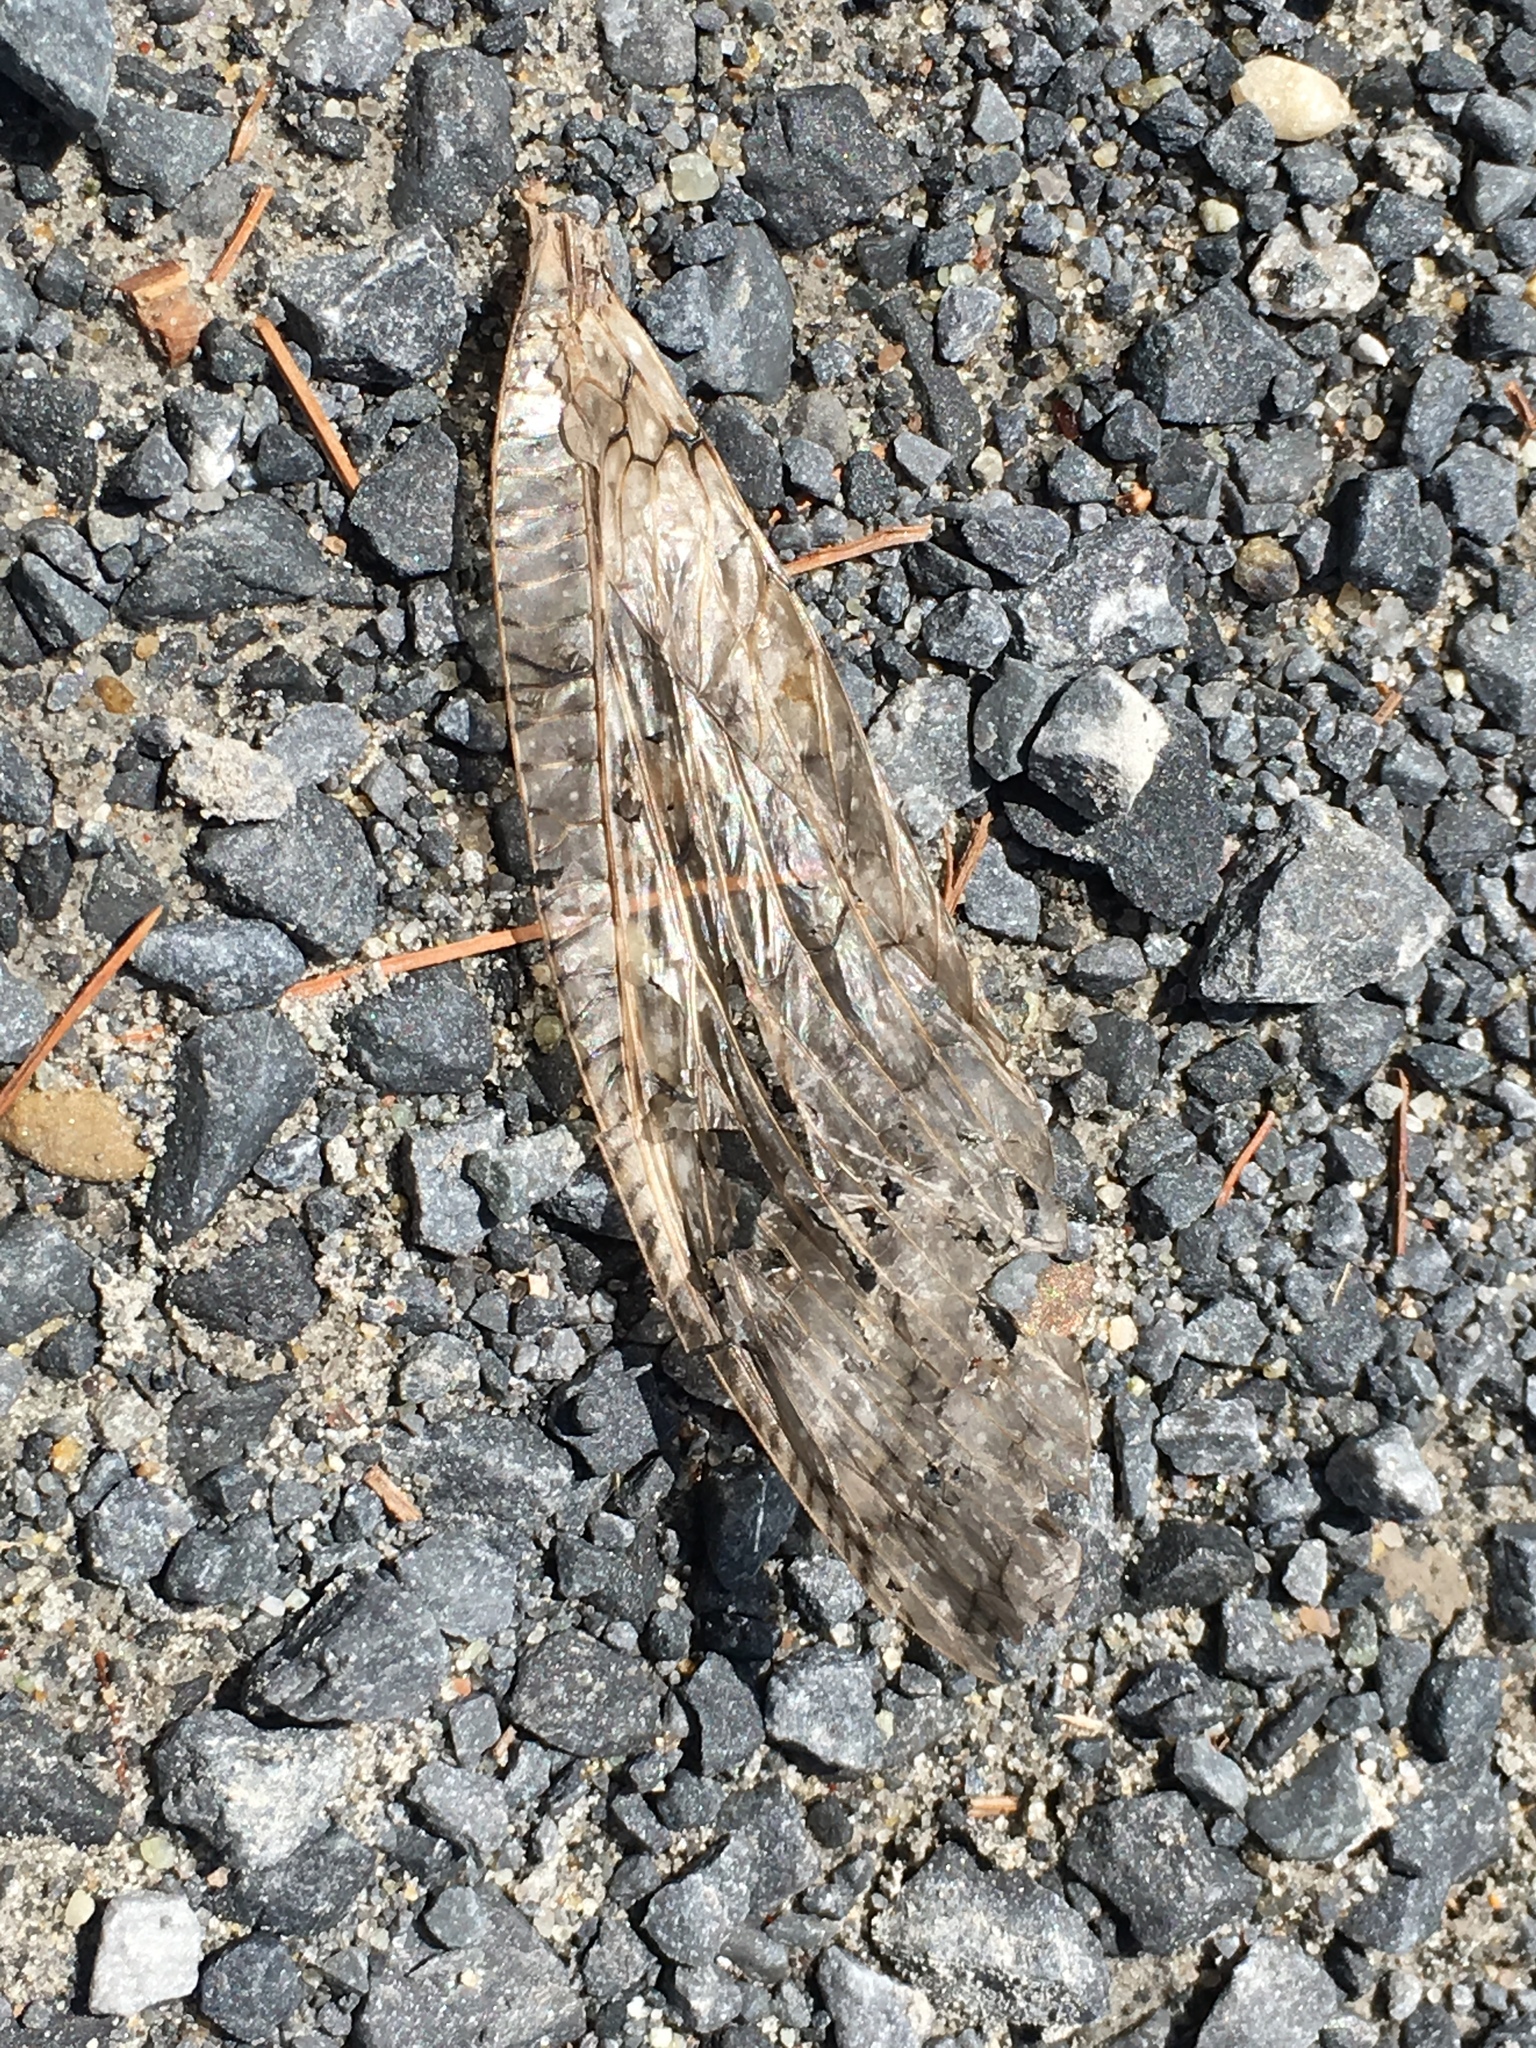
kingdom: Animalia
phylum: Arthropoda
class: Insecta
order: Megaloptera
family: Corydalidae
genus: Corydalus
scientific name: Corydalus cornutus
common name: Dobsonfly
